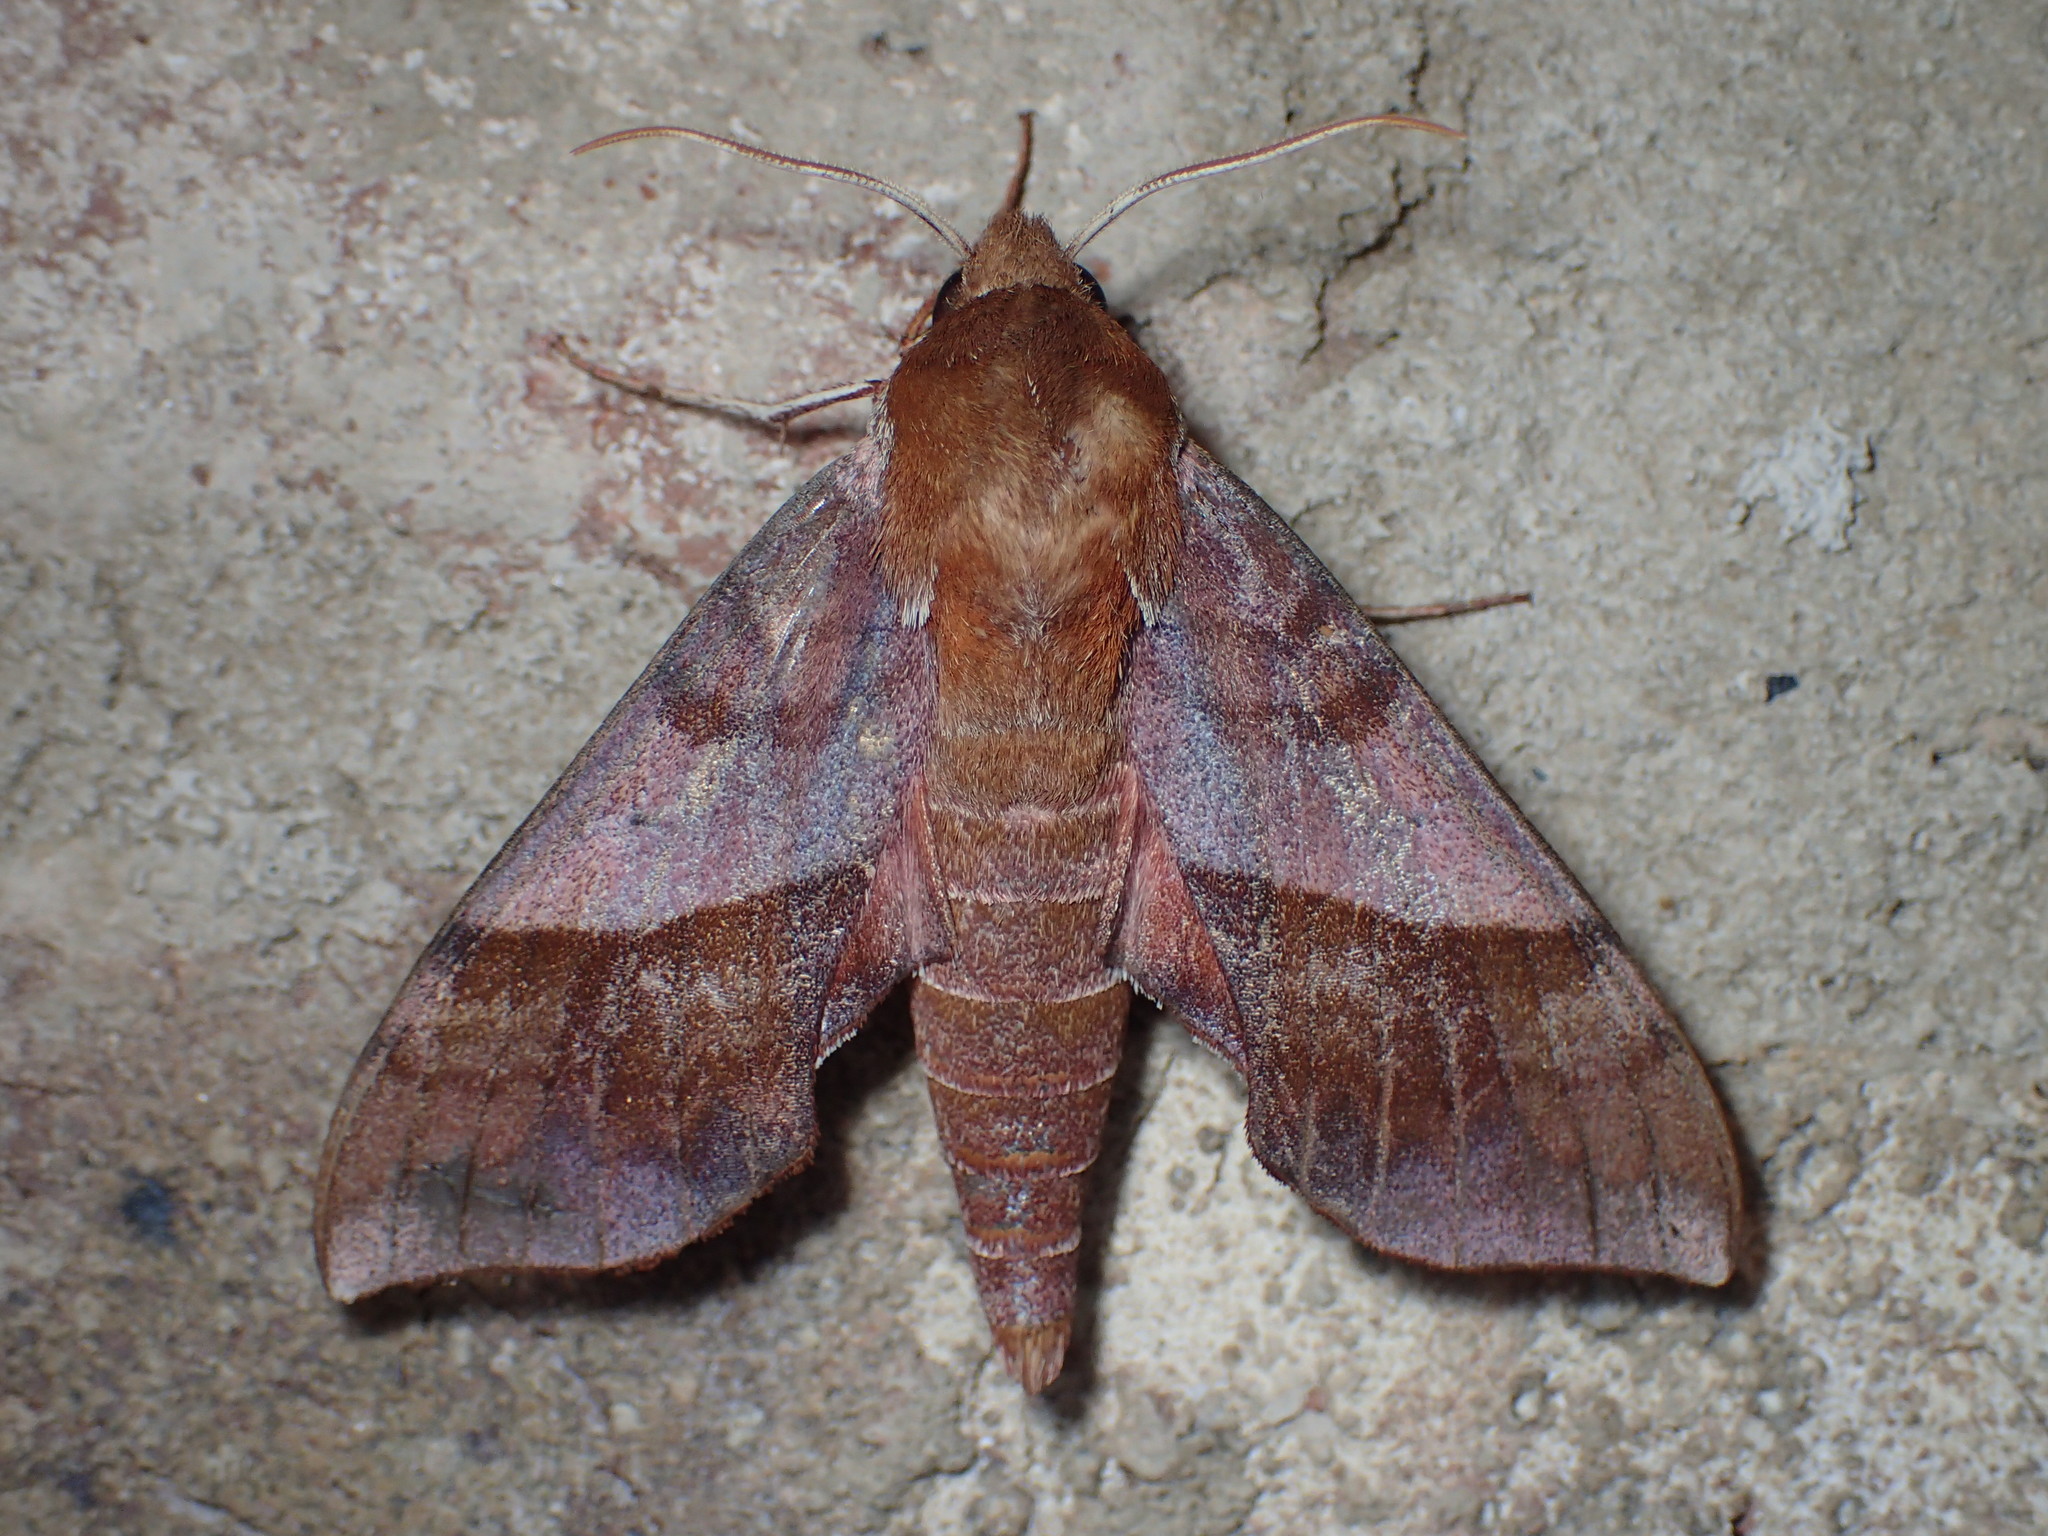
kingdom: Animalia
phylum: Arthropoda
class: Insecta
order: Lepidoptera
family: Sphingidae
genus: Darapsa
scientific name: Darapsa choerilus
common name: Azalea sphinx
